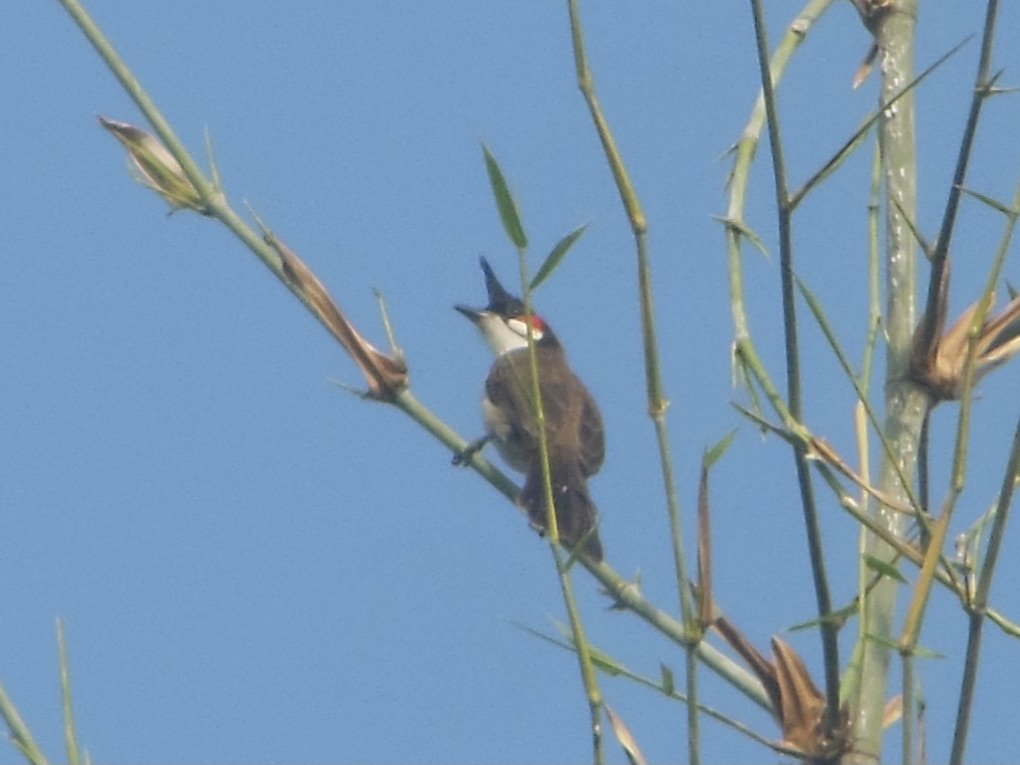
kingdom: Animalia
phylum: Chordata
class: Aves
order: Passeriformes
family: Pycnonotidae
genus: Pycnonotus
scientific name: Pycnonotus jocosus
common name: Red-whiskered bulbul
